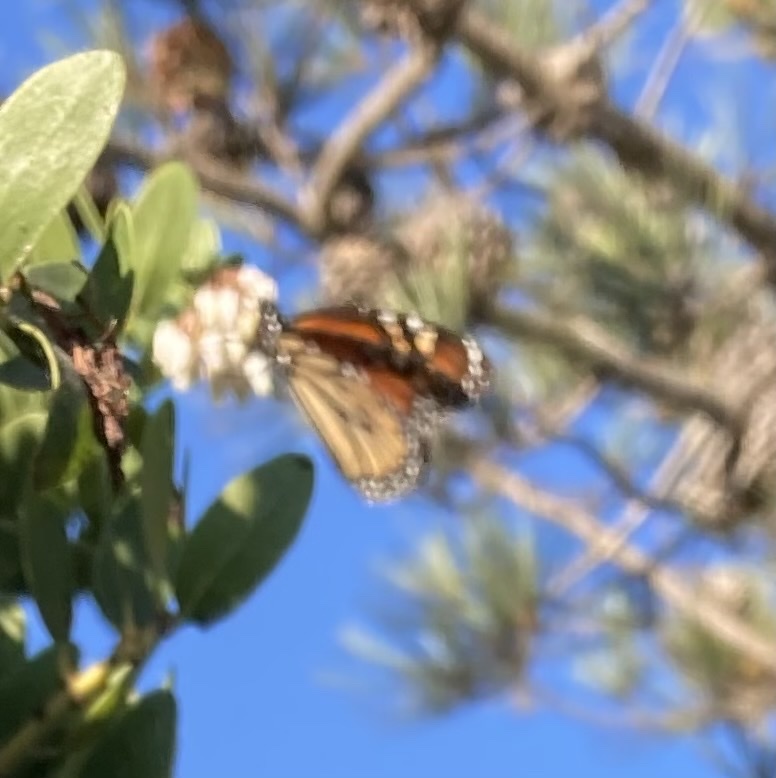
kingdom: Animalia
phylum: Arthropoda
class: Insecta
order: Lepidoptera
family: Nymphalidae
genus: Danaus
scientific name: Danaus plexippus
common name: Monarch
